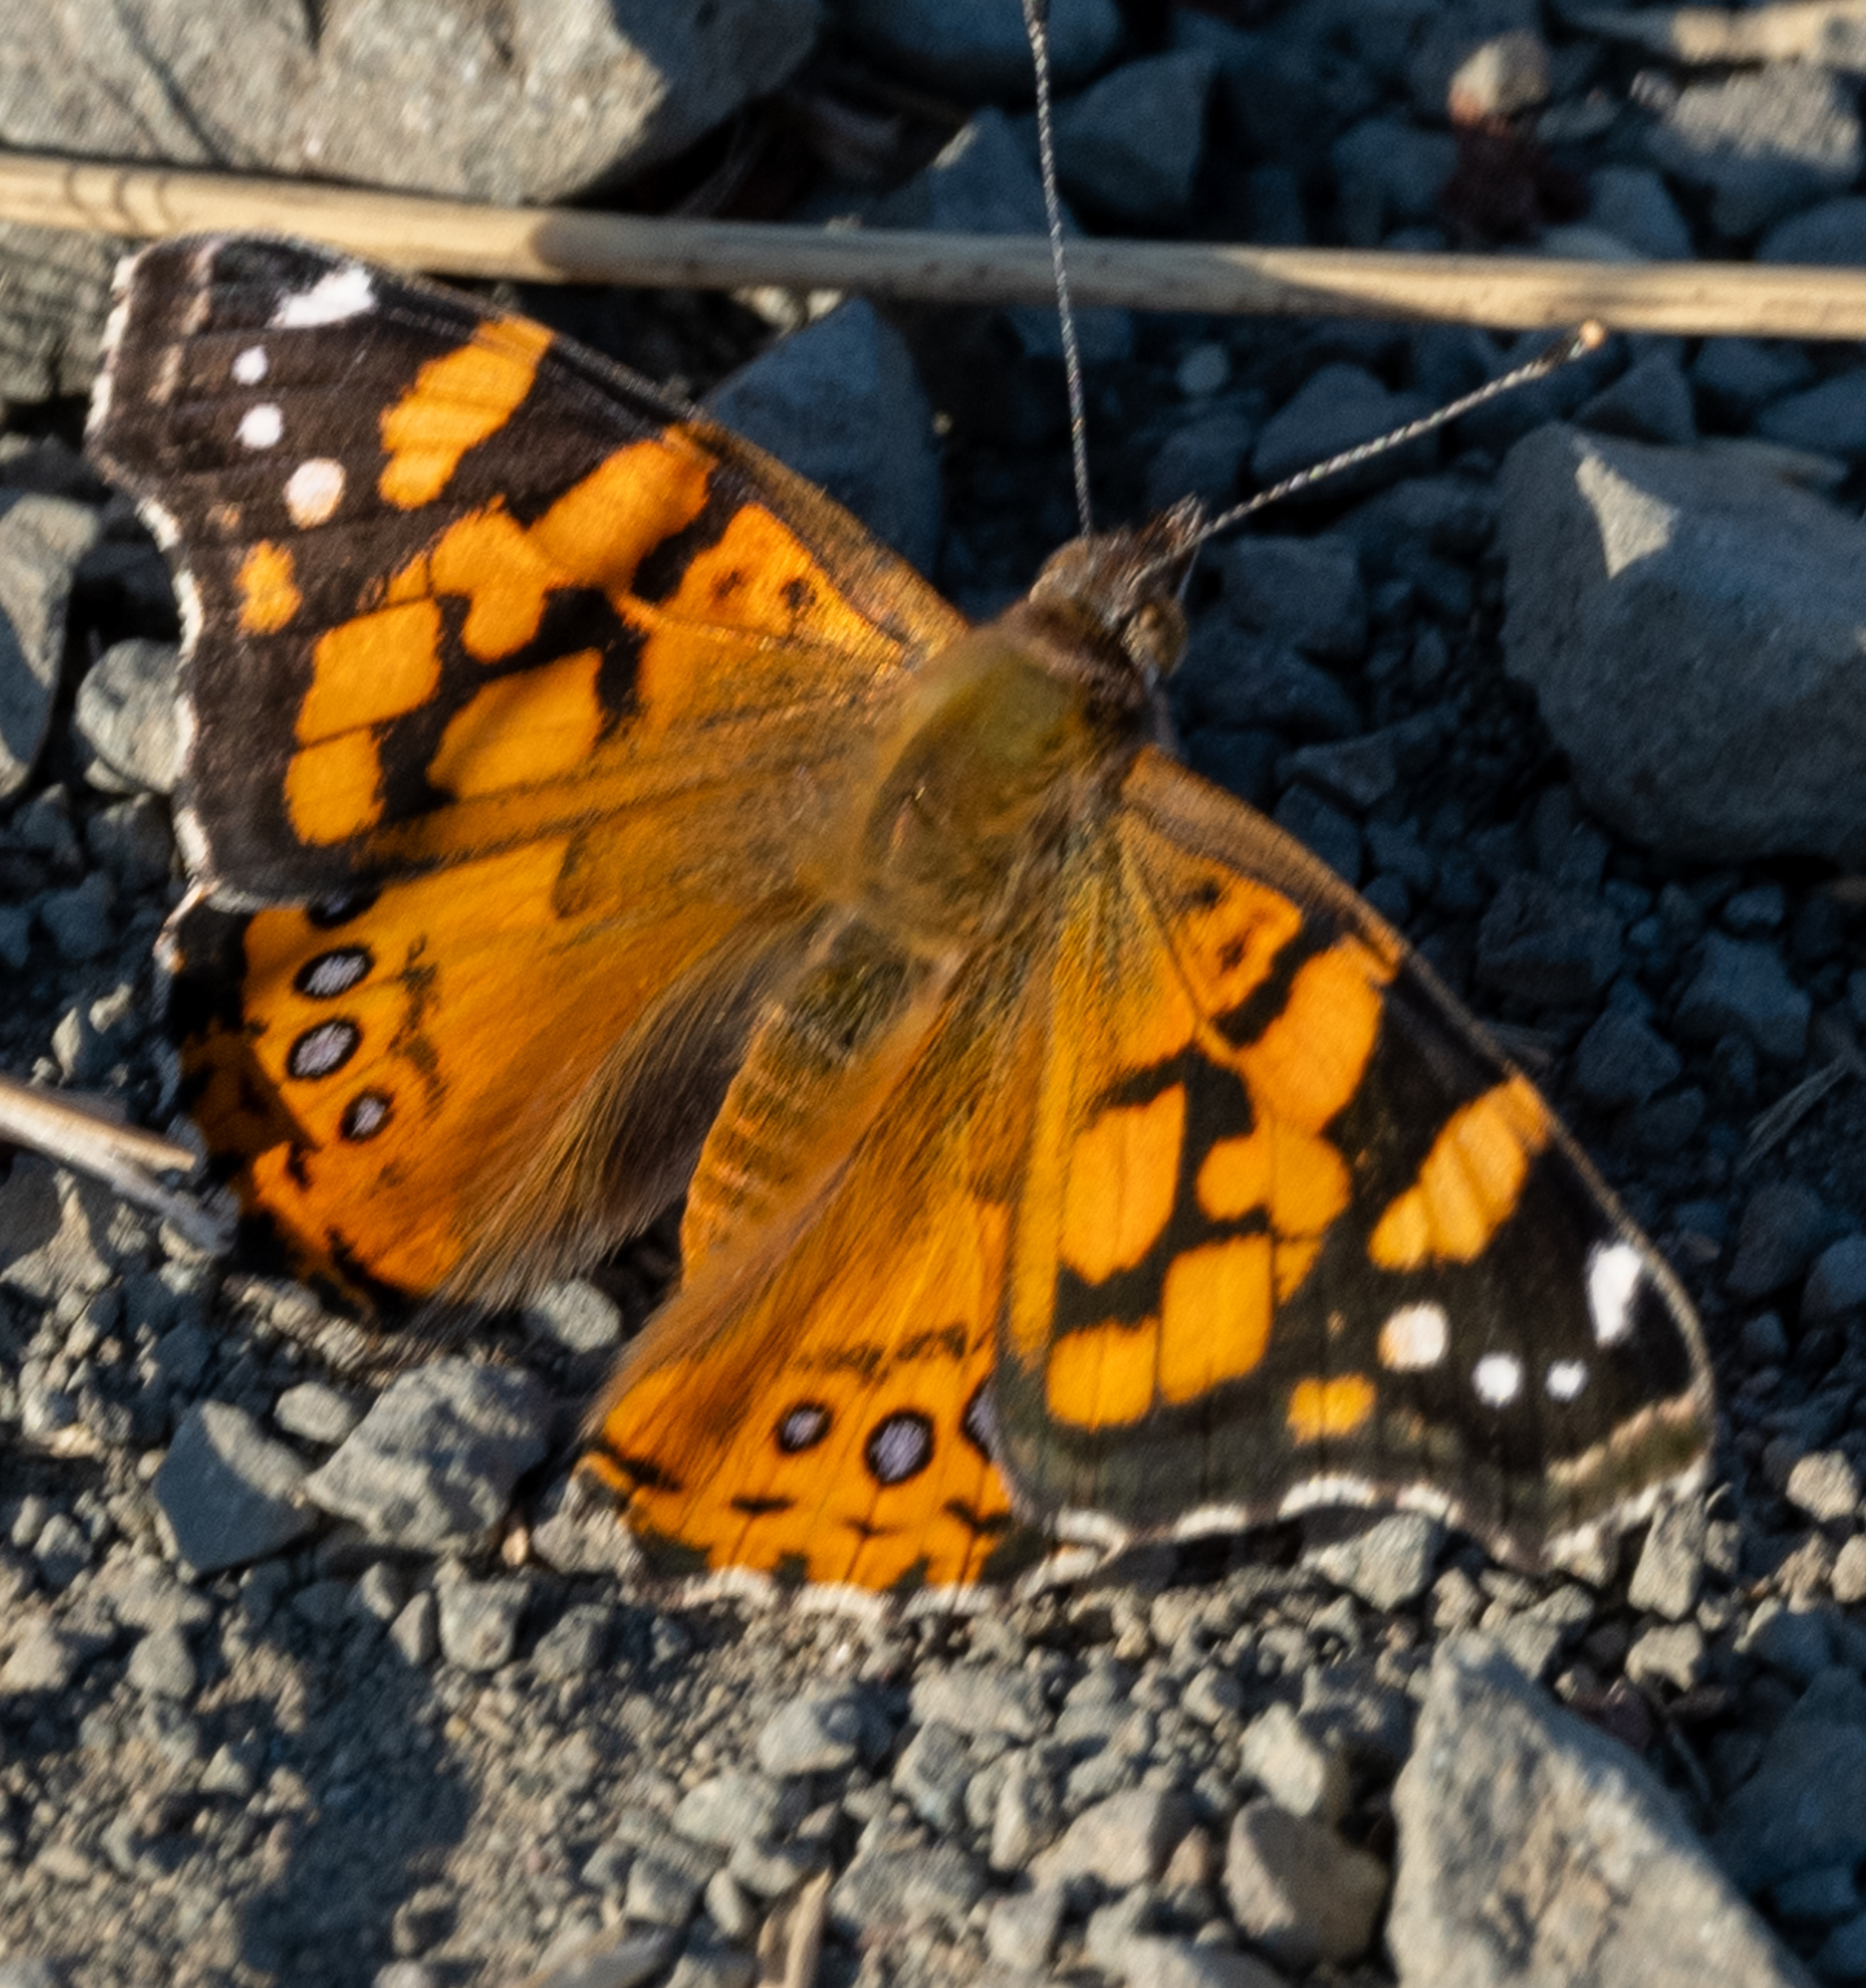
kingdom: Animalia
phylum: Arthropoda
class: Insecta
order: Lepidoptera
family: Nymphalidae
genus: Vanessa
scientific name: Vanessa annabella
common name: West coast lady
